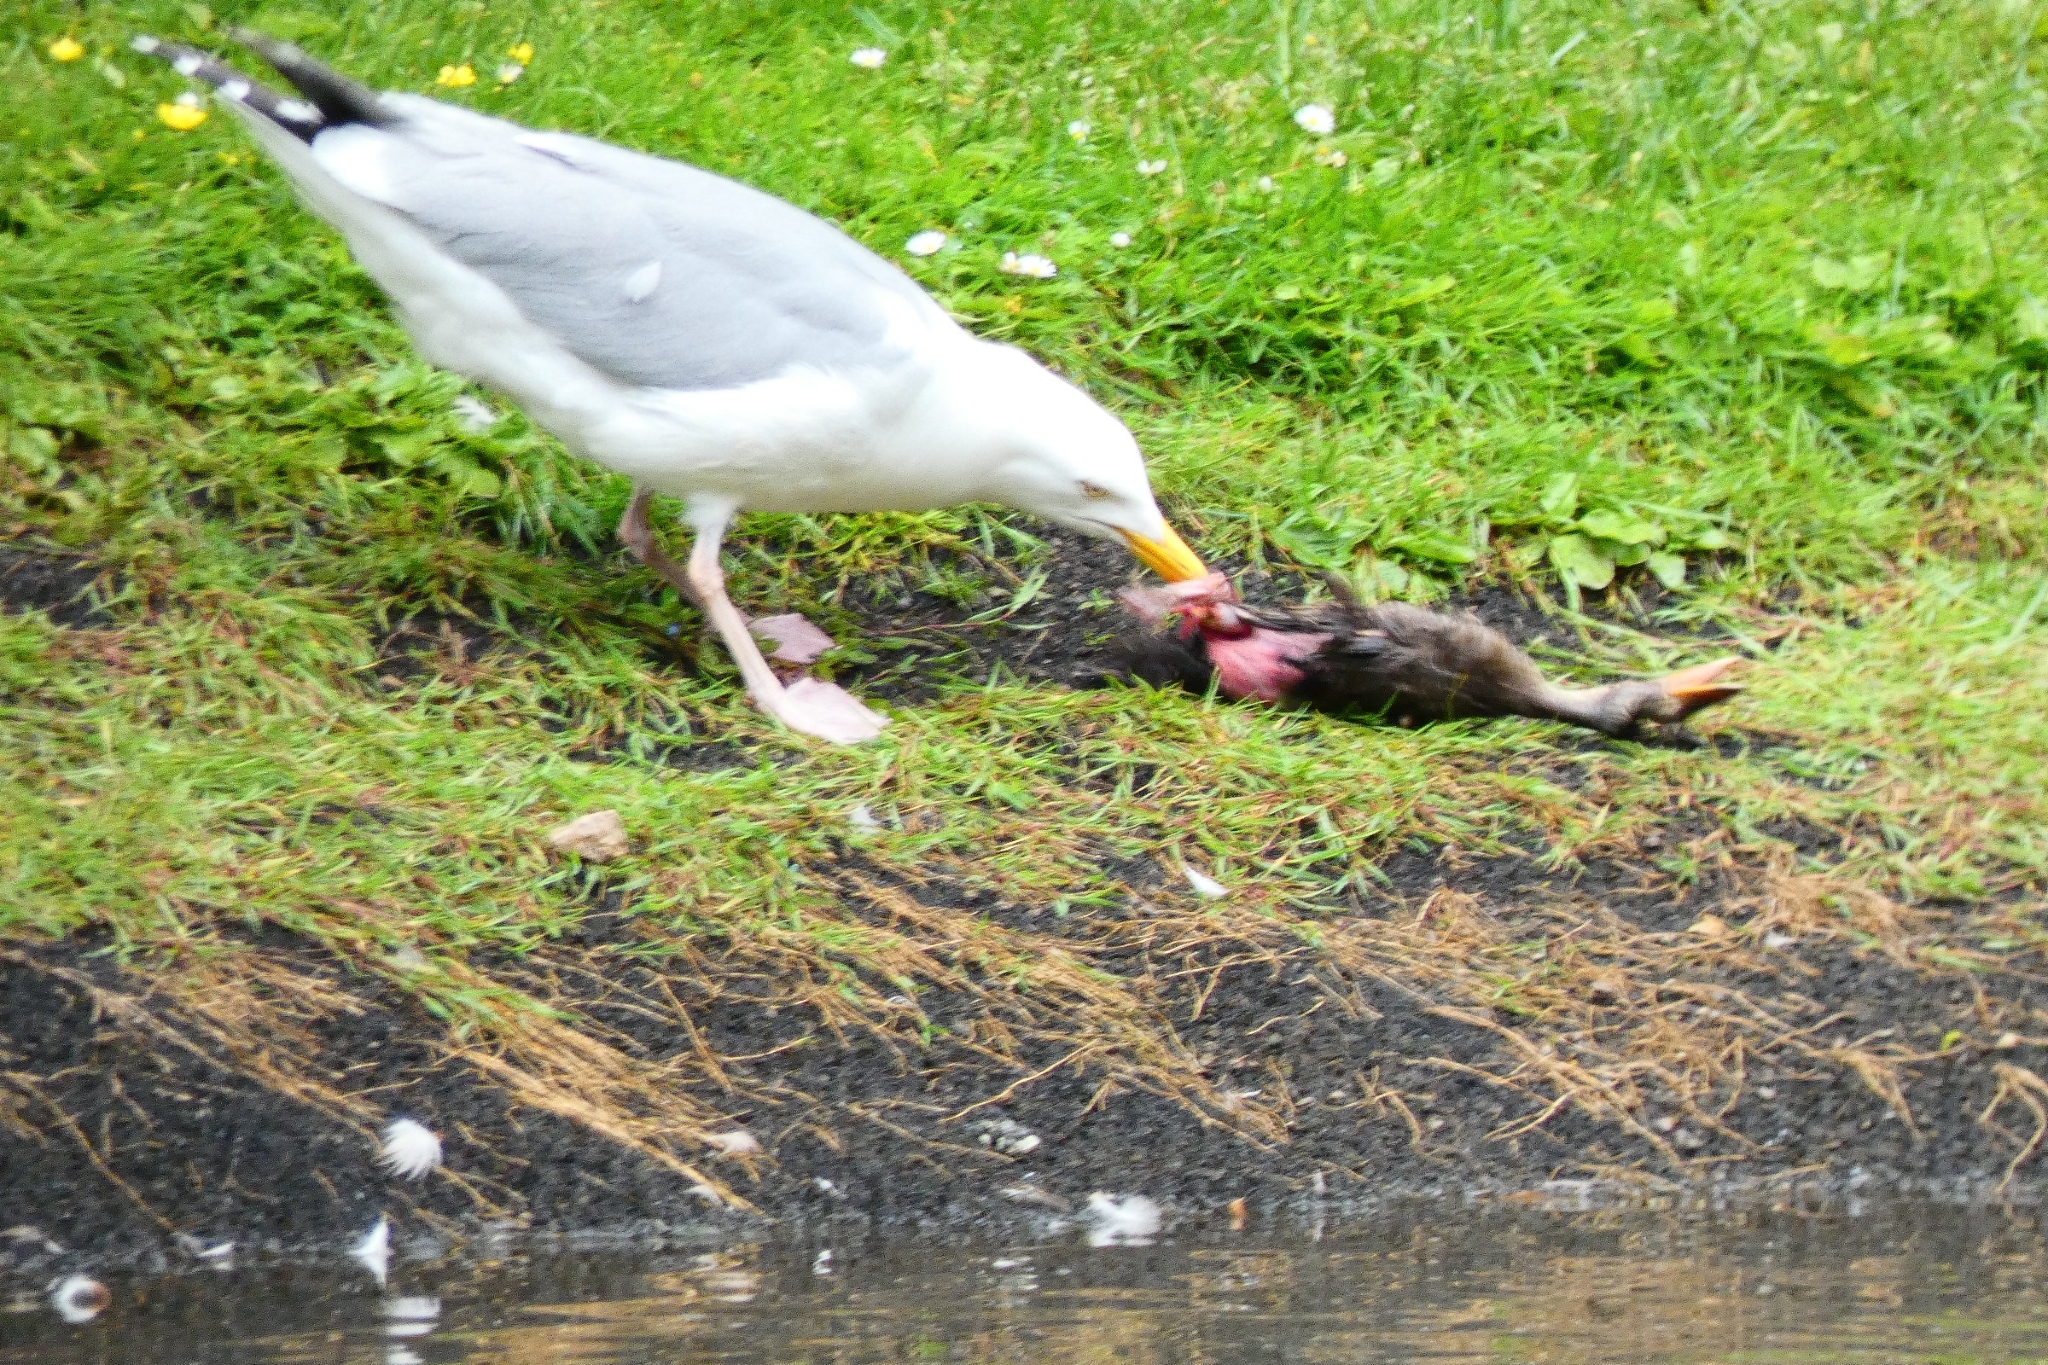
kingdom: Animalia
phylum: Chordata
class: Aves
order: Charadriiformes
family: Laridae
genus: Larus
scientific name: Larus argentatus
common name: Herring gull
